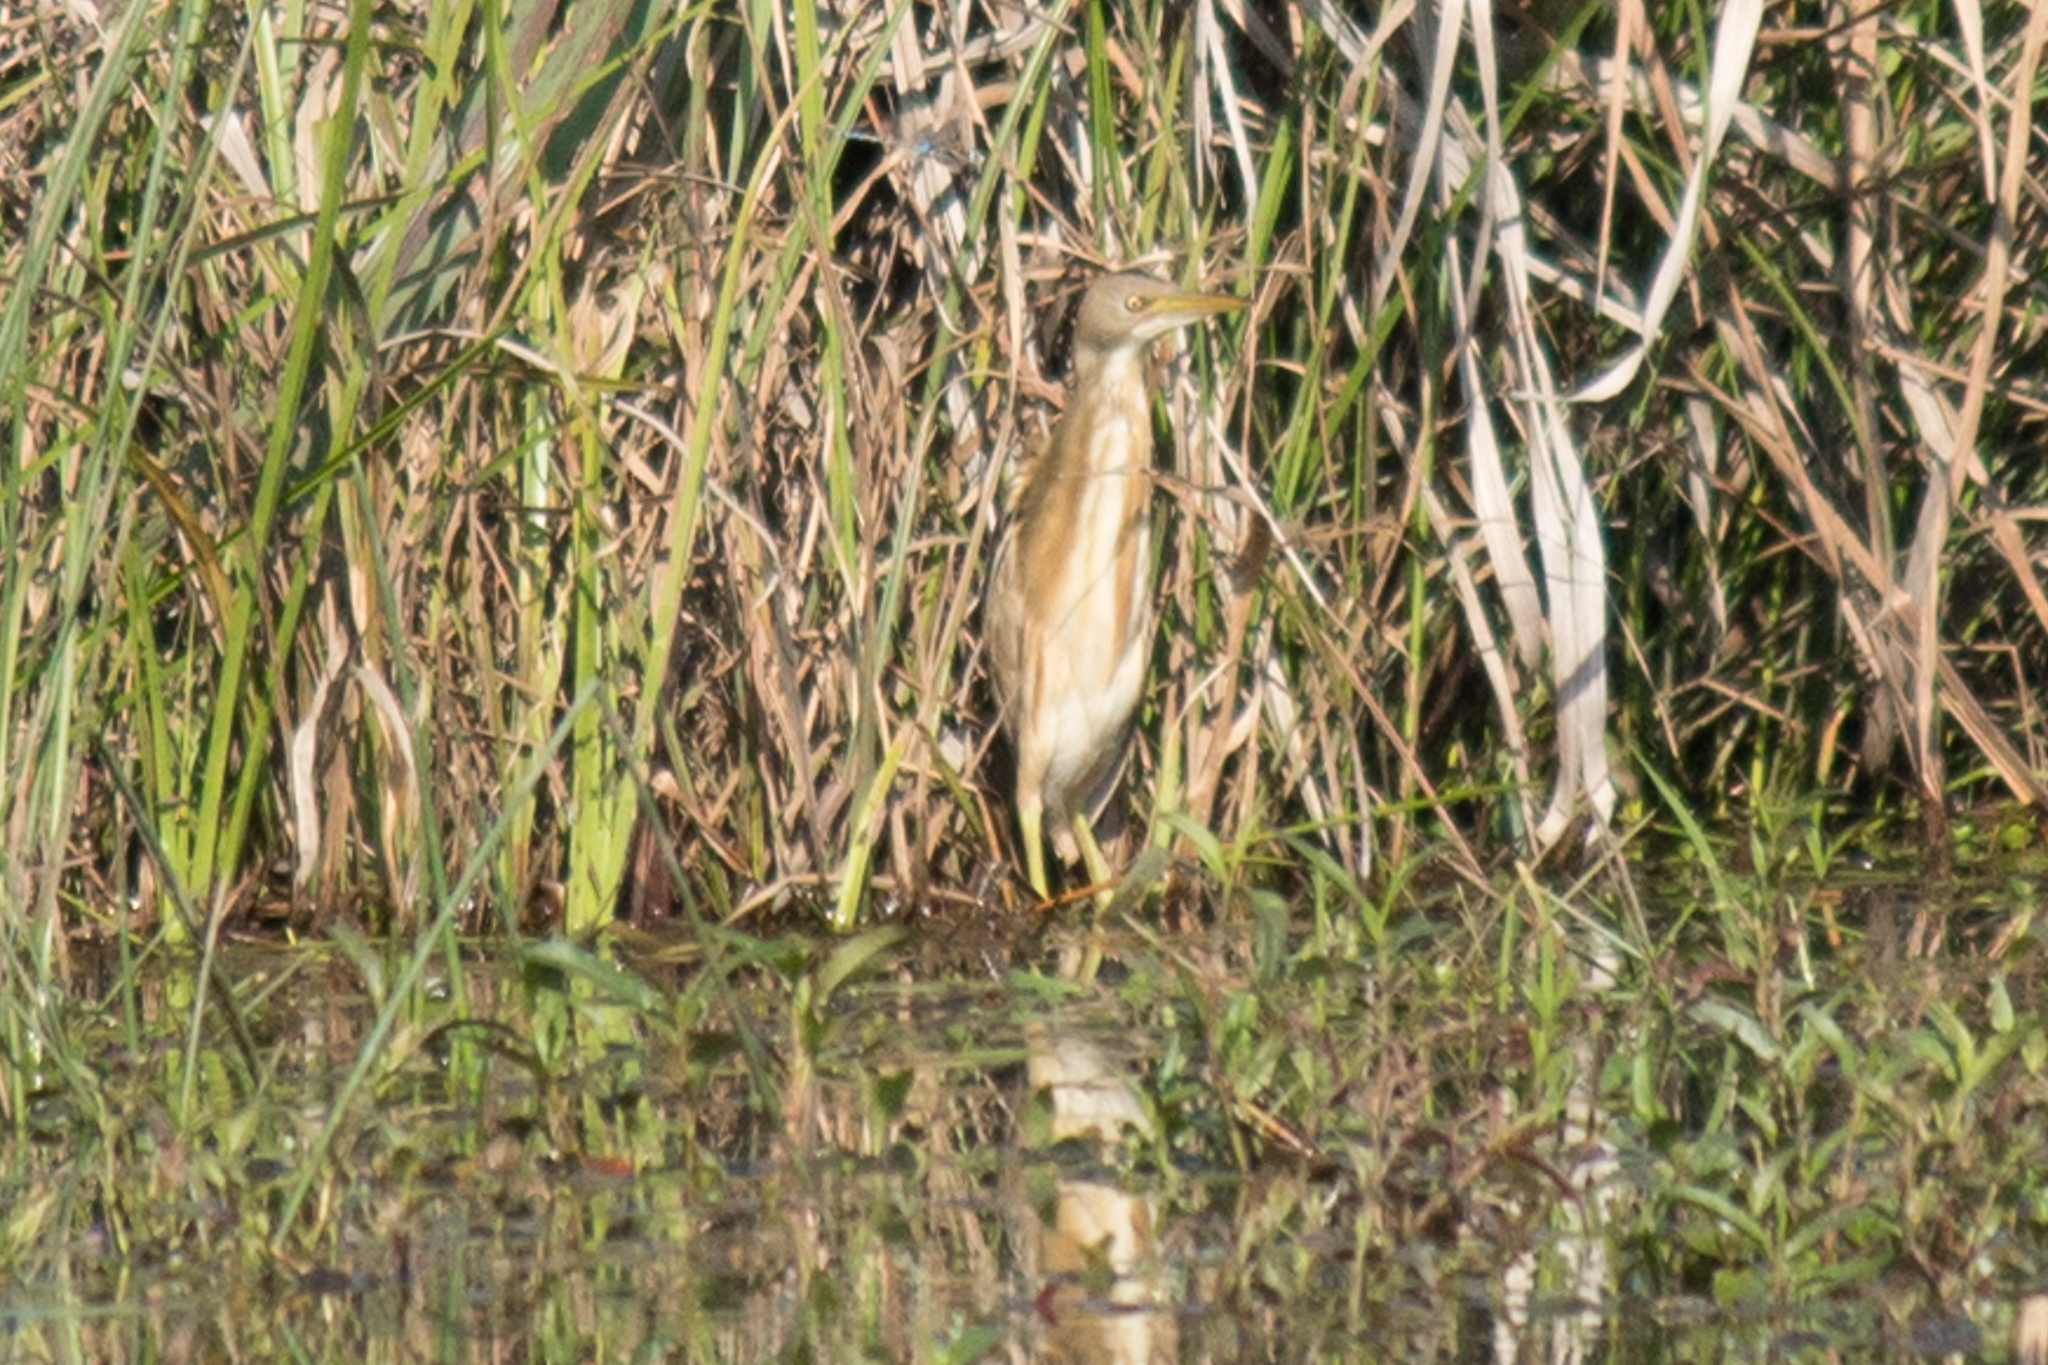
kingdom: Animalia
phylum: Chordata
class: Aves
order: Pelecaniformes
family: Ardeidae
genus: Ixobrychus
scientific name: Ixobrychus involucris
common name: Stripe-backed bittern
